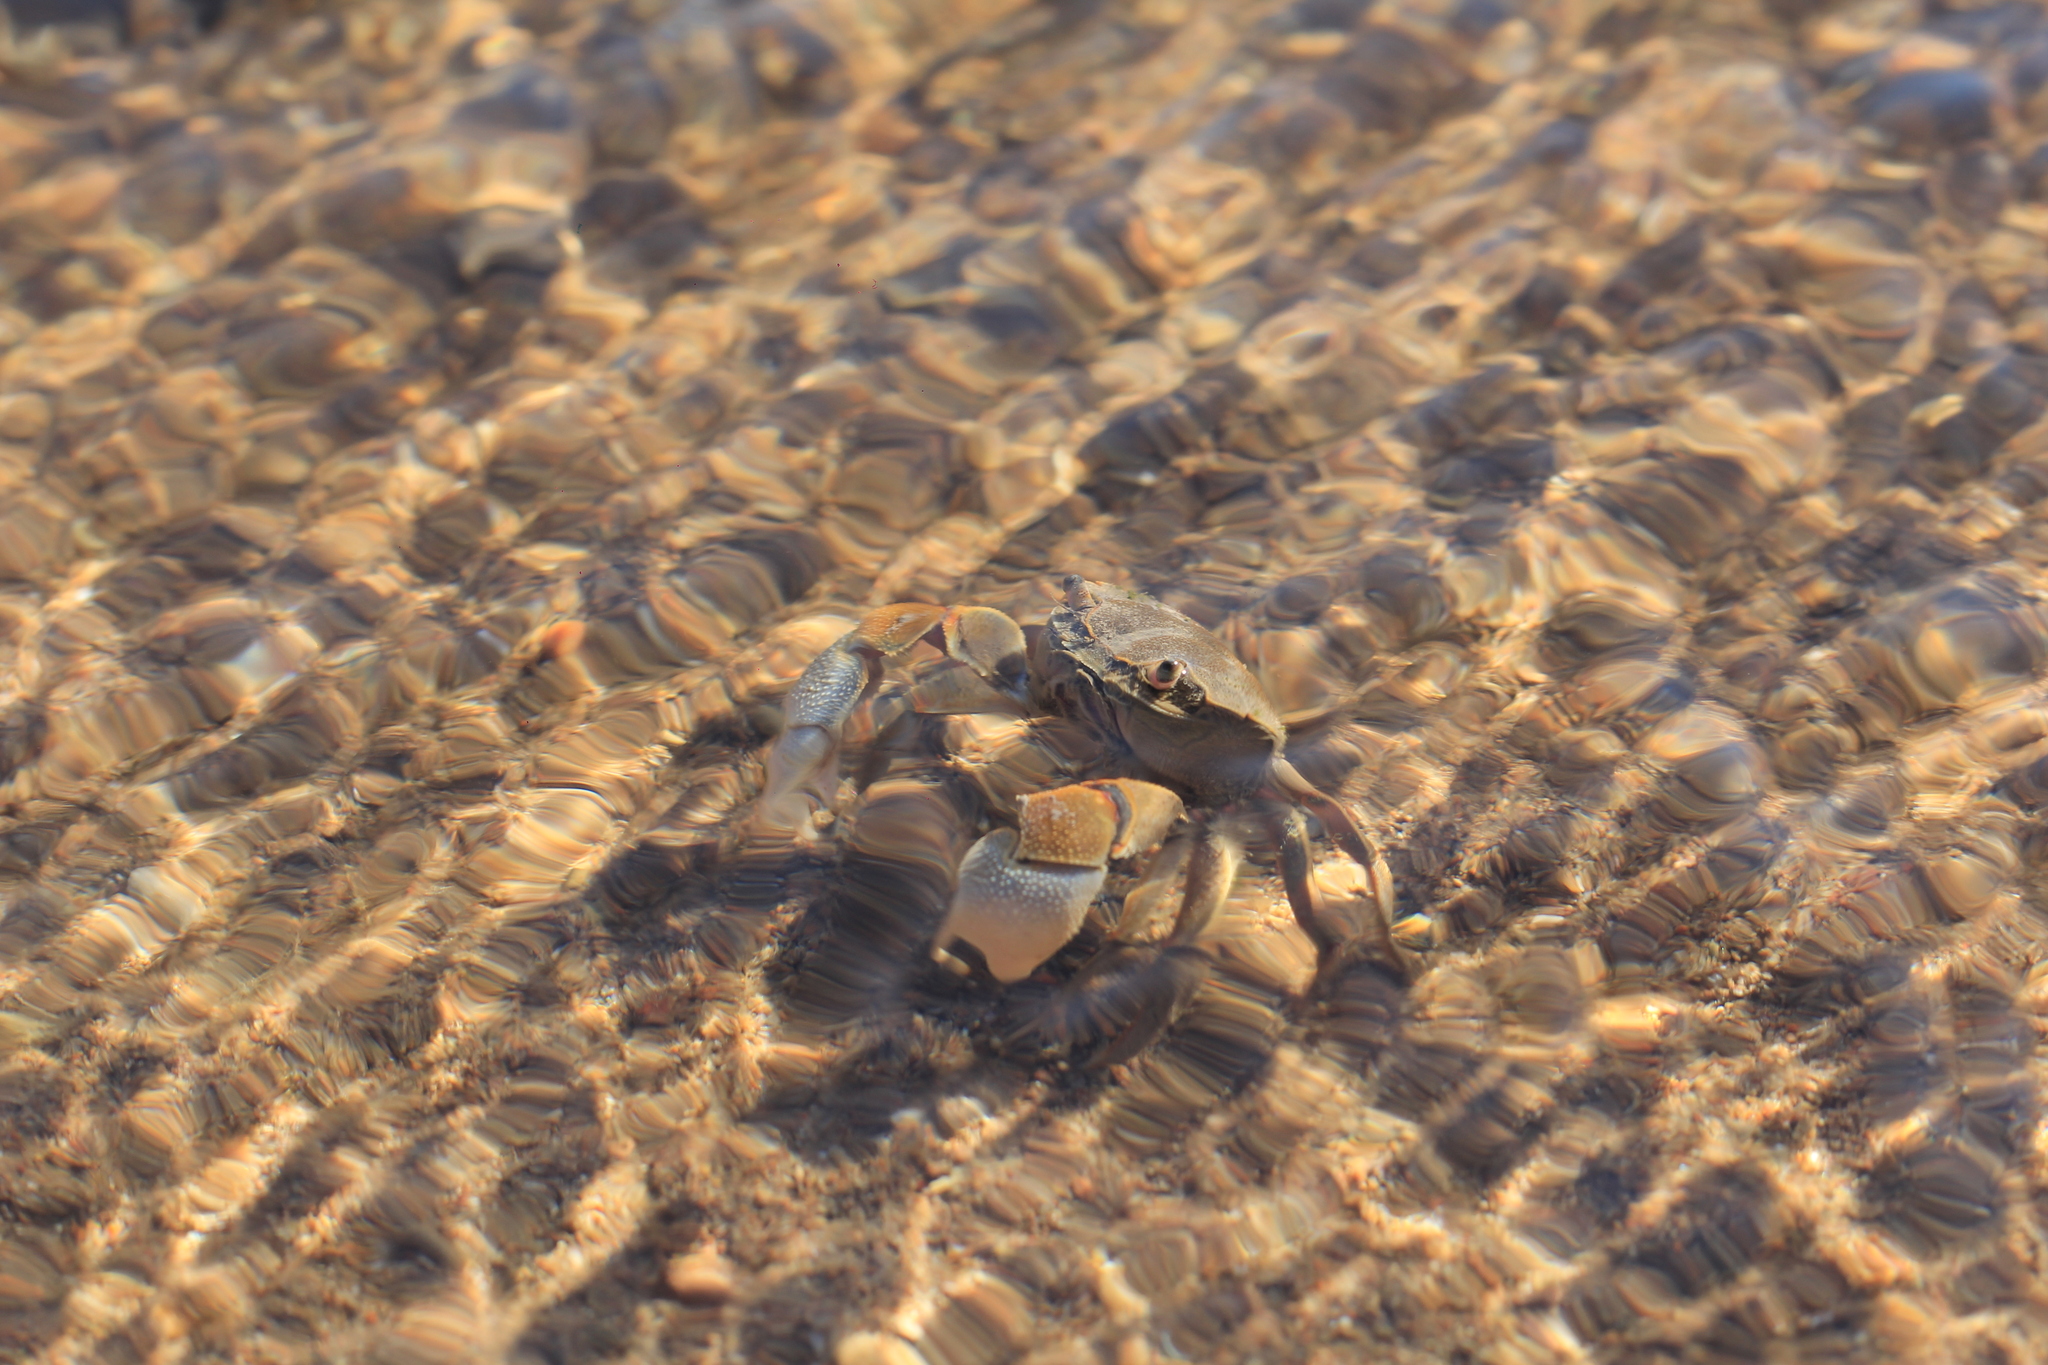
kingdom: Animalia
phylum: Arthropoda
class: Malacostraca
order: Decapoda
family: Varunidae
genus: Neohelice
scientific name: Neohelice granulata
